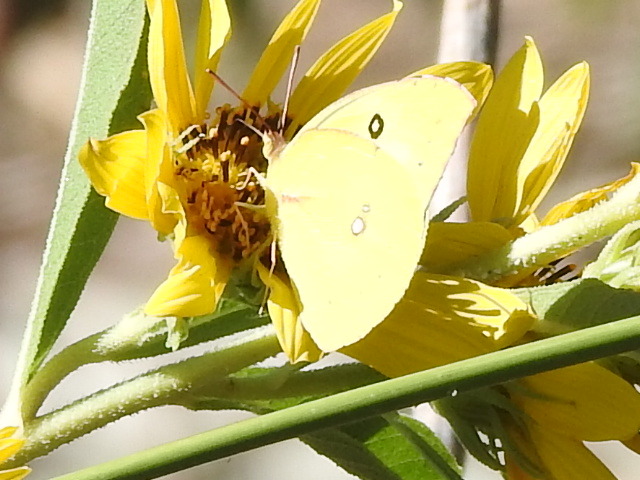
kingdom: Animalia
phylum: Arthropoda
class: Insecta
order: Lepidoptera
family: Pieridae
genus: Zerene
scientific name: Zerene cesonia
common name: Southern dogface
